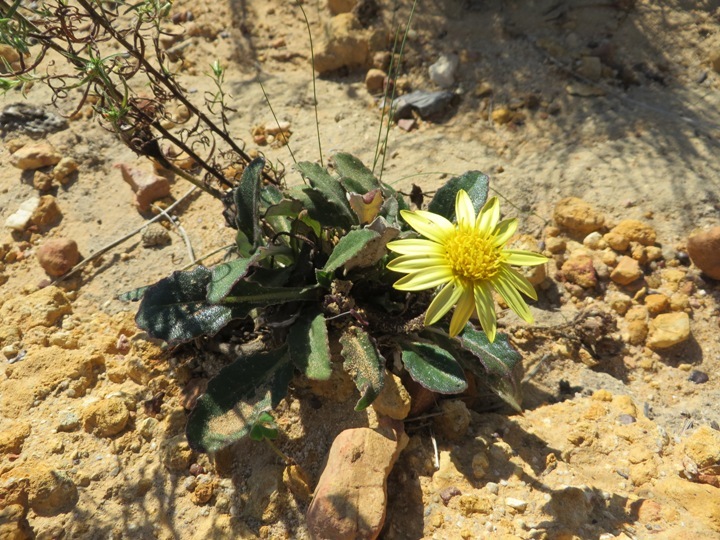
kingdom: Plantae
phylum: Tracheophyta
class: Magnoliopsida
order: Asterales
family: Asteraceae
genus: Haplocarpha
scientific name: Haplocarpha lanata
